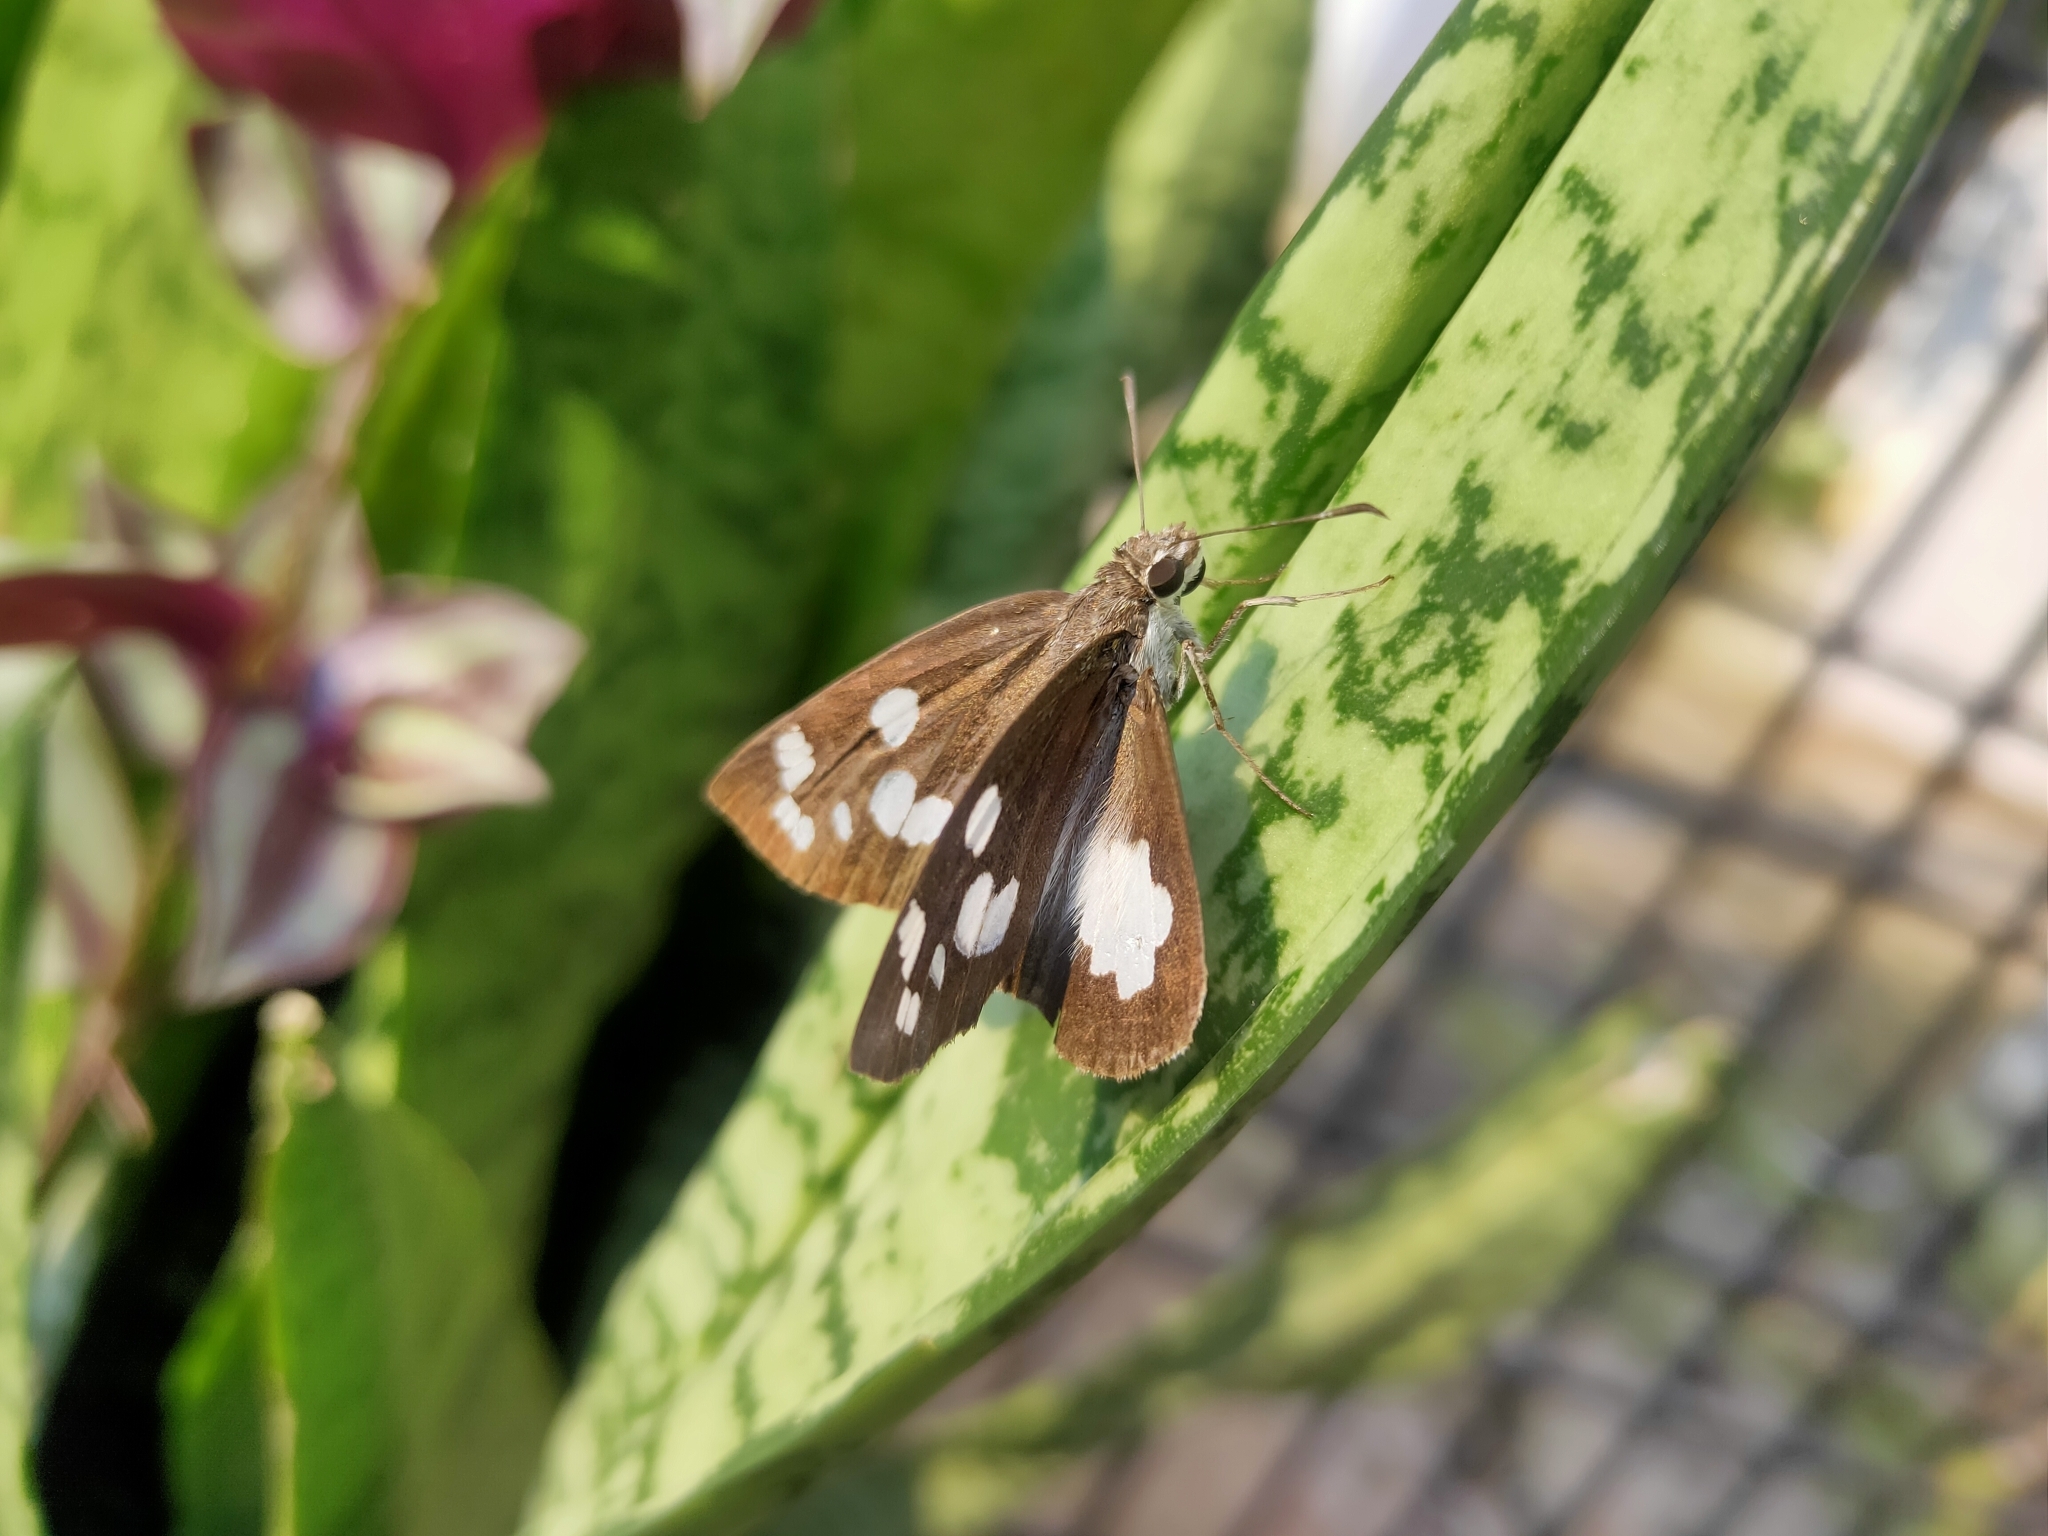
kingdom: Animalia
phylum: Arthropoda
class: Insecta
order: Lepidoptera
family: Hesperiidae
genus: Udaspes
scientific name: Udaspes folus
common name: Grass demon
